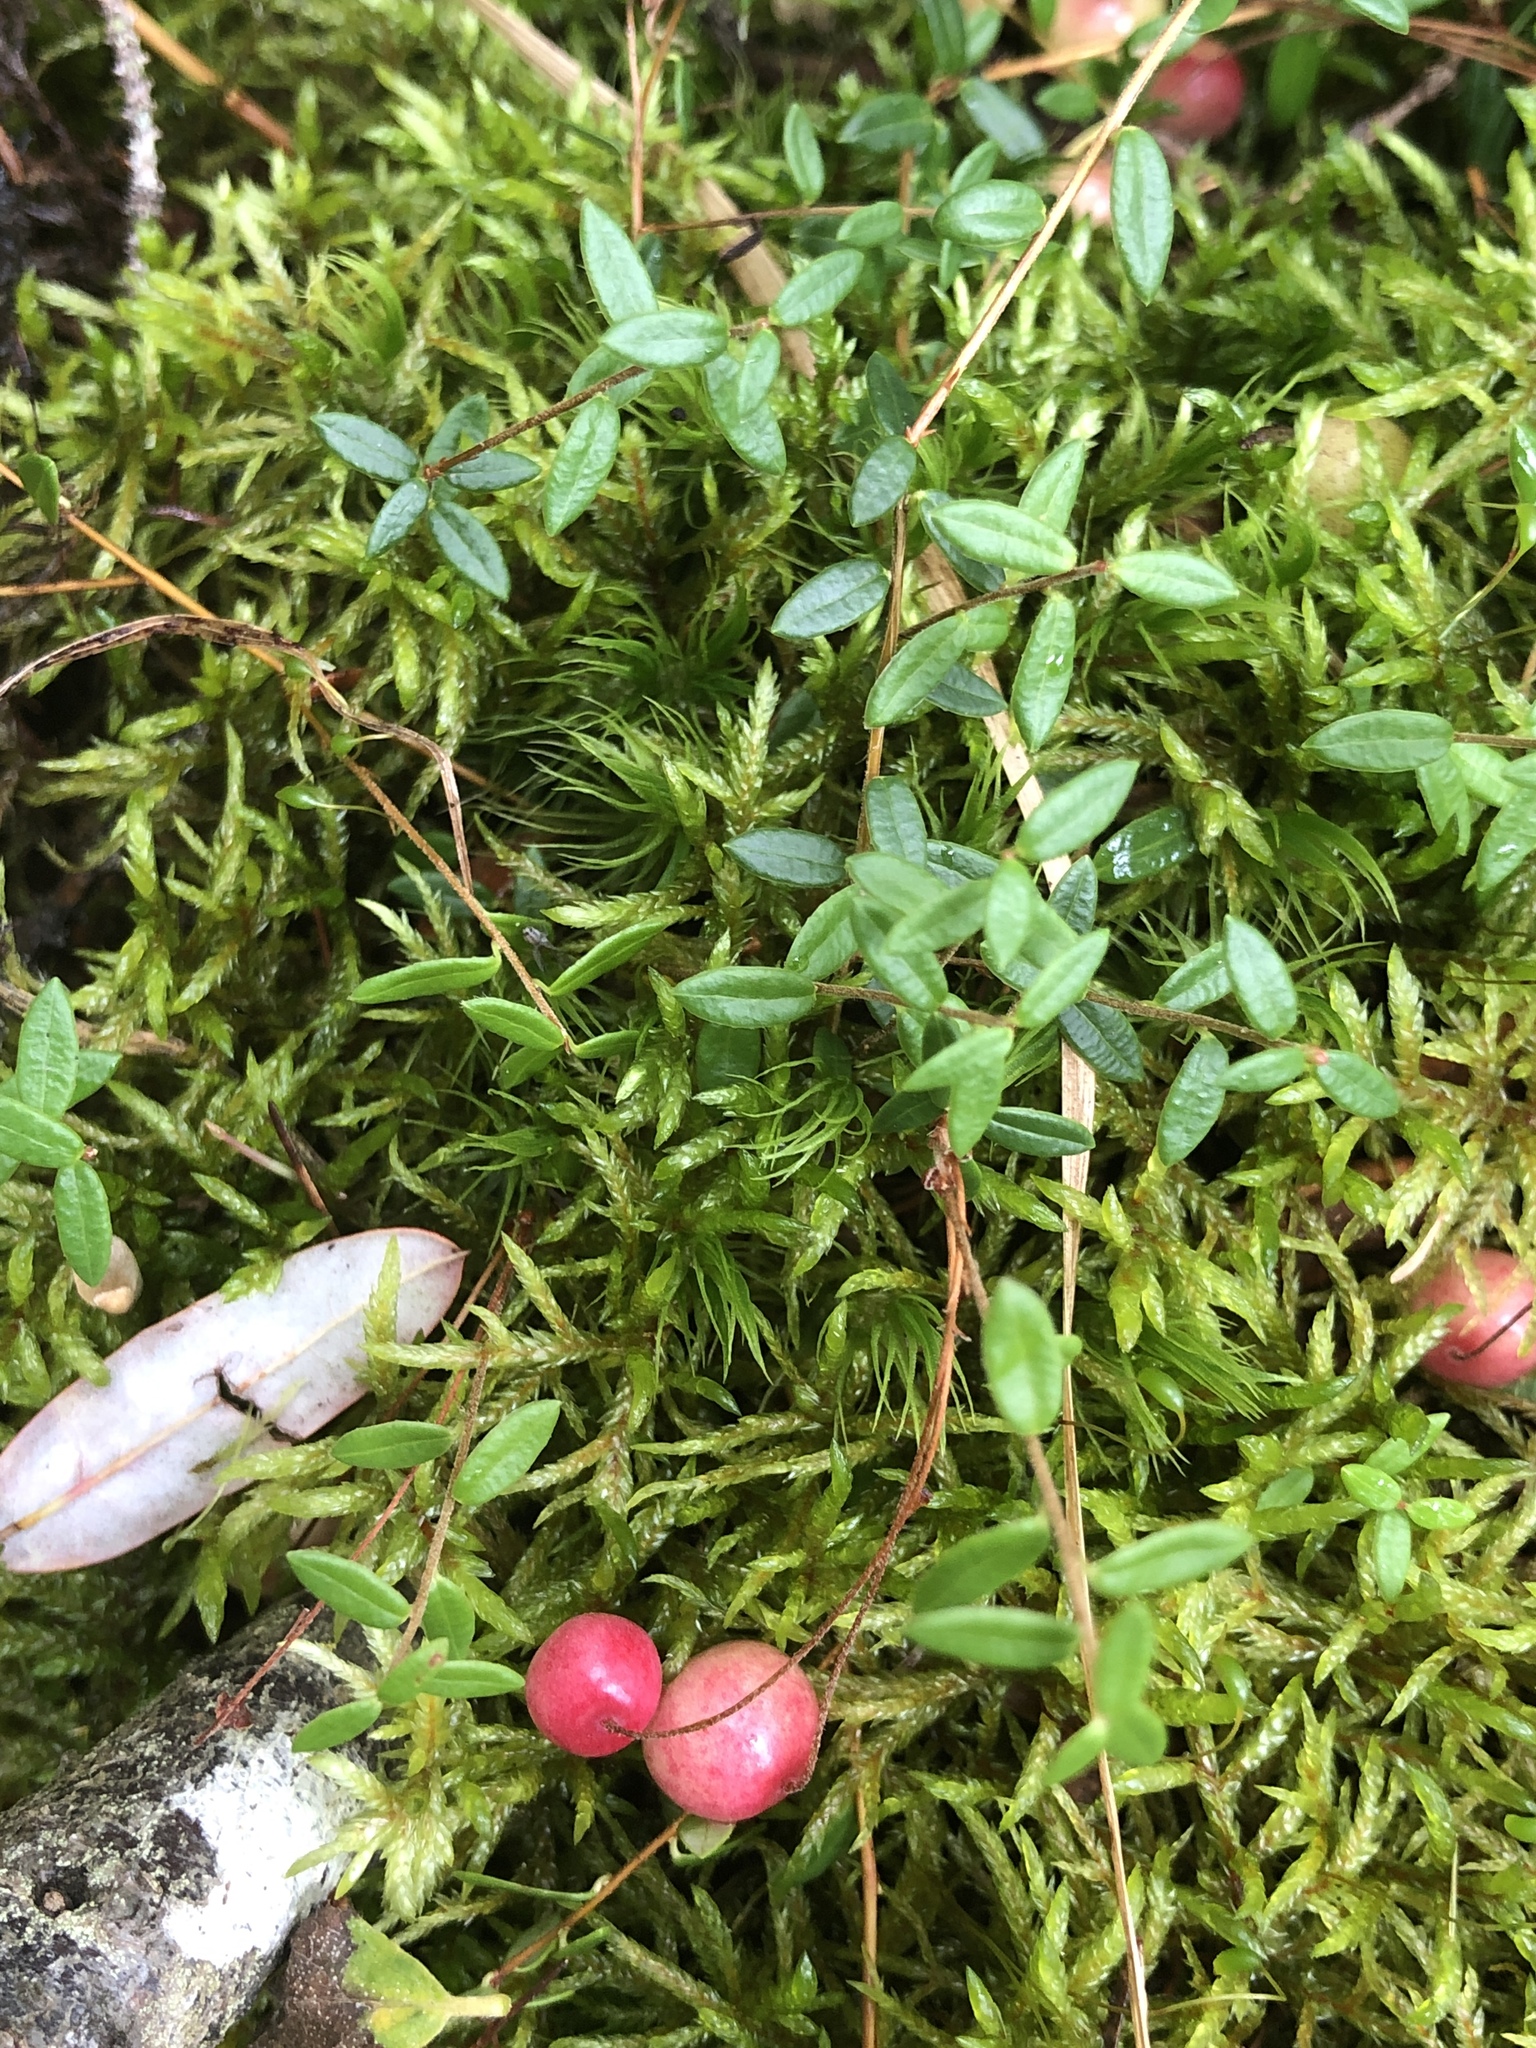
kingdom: Plantae
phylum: Tracheophyta
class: Magnoliopsida
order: Ericales
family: Ericaceae
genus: Vaccinium
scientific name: Vaccinium oxycoccos
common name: Cranberry
